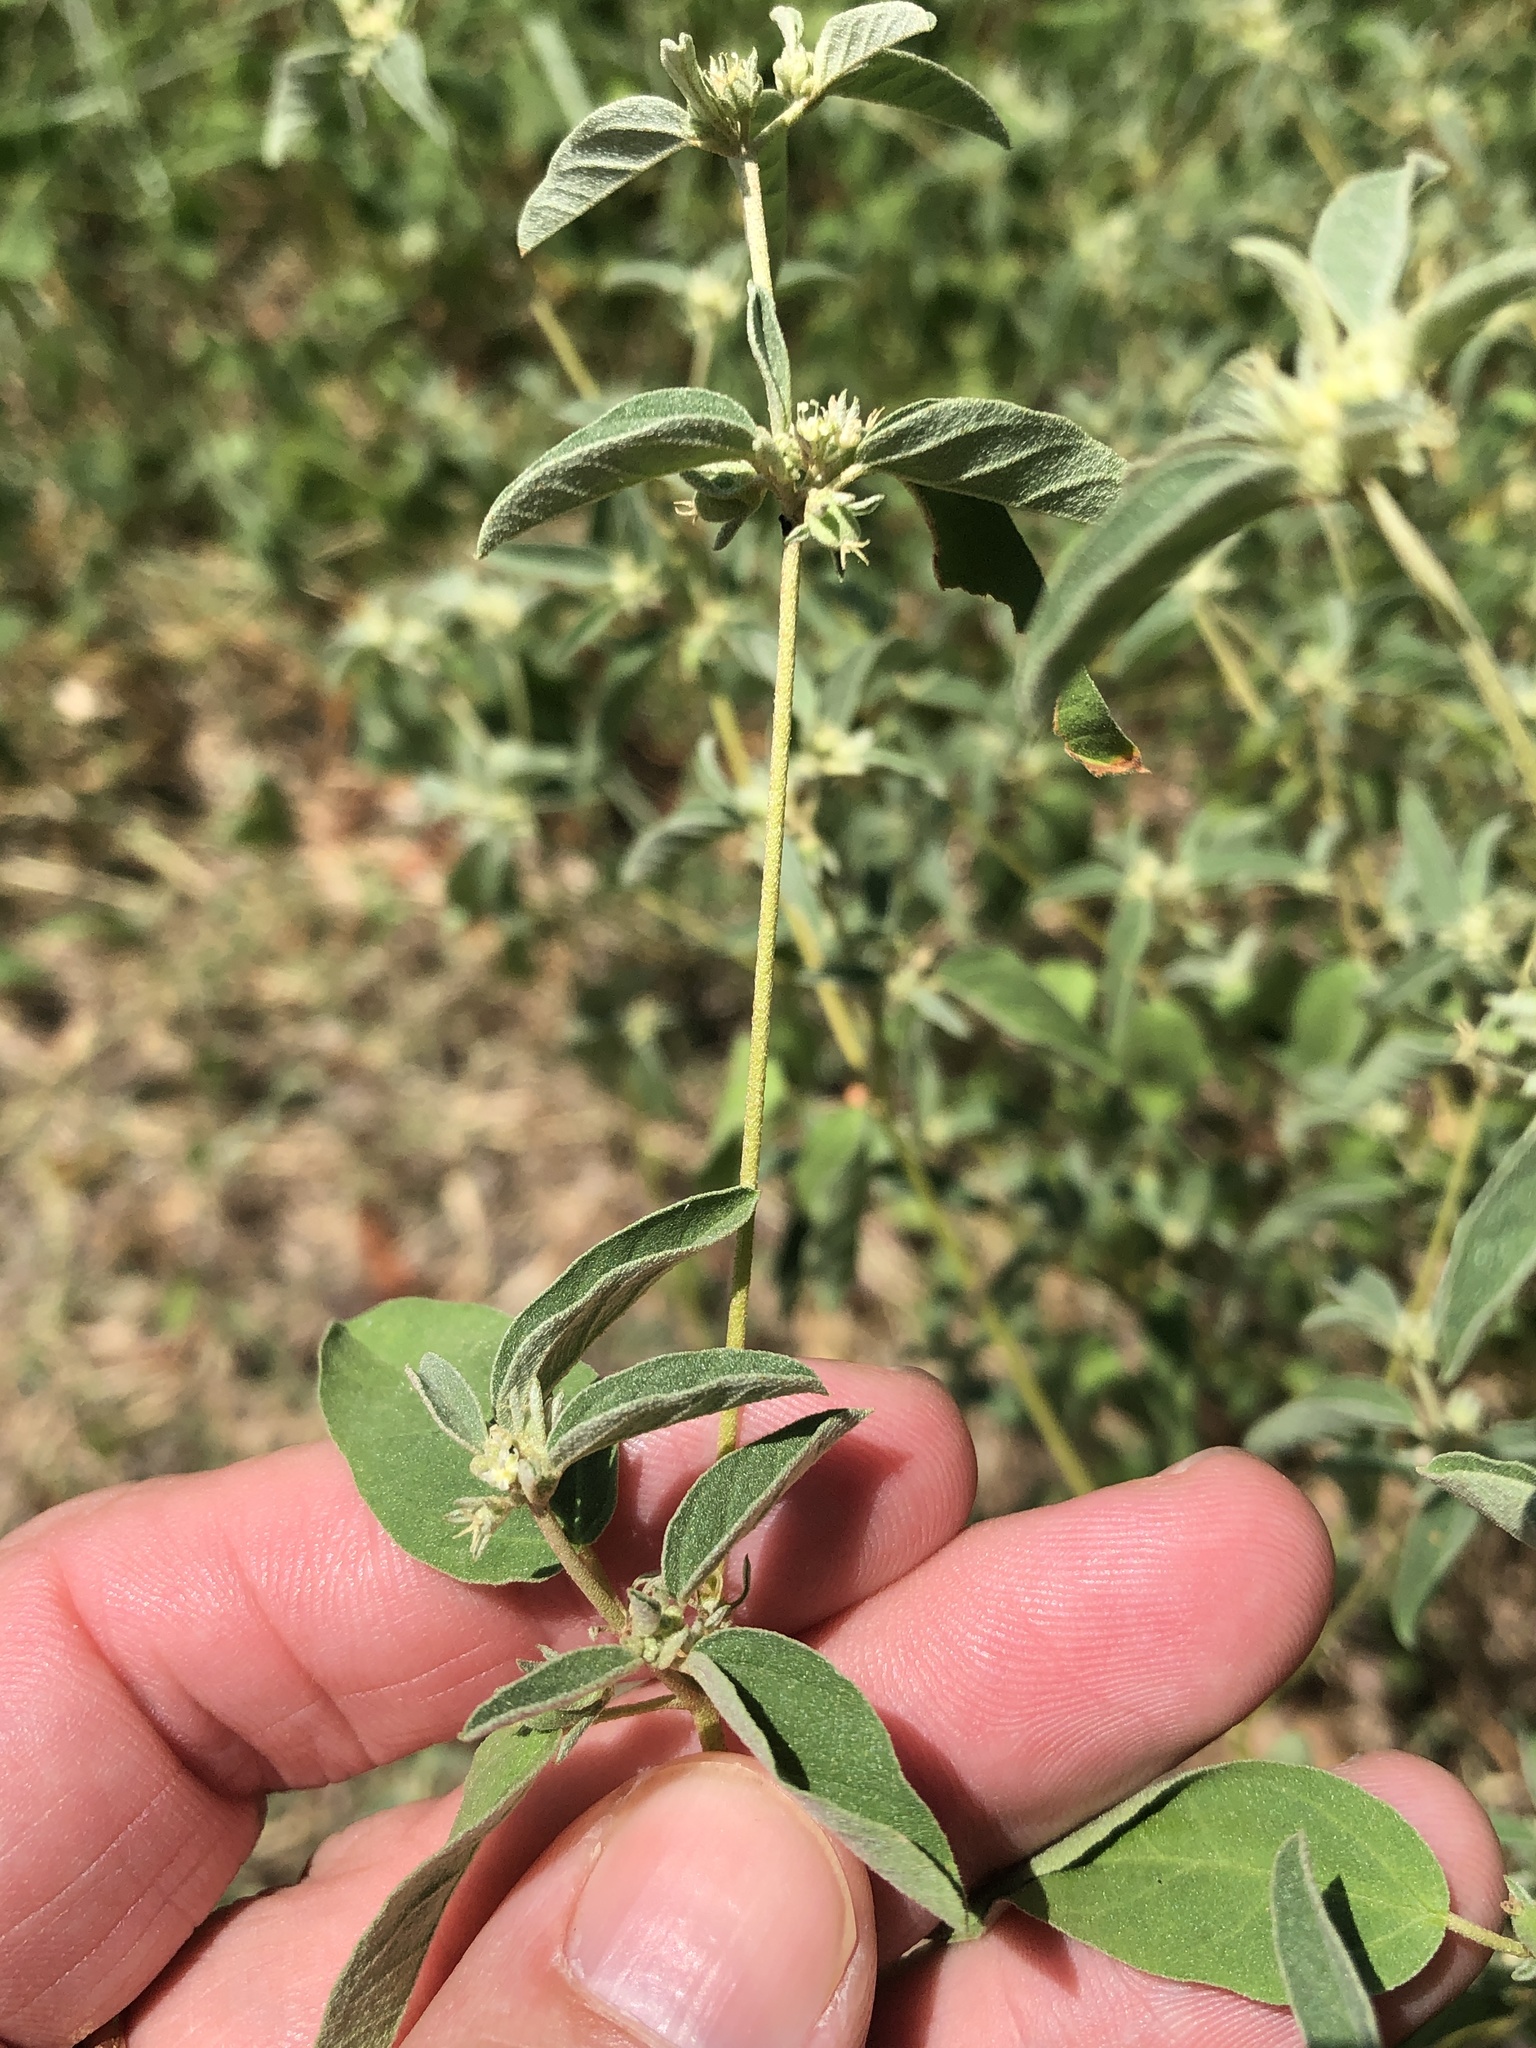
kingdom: Plantae
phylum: Tracheophyta
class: Magnoliopsida
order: Malpighiales
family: Euphorbiaceae
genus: Croton
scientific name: Croton monanthogynus
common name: One-seed croton
